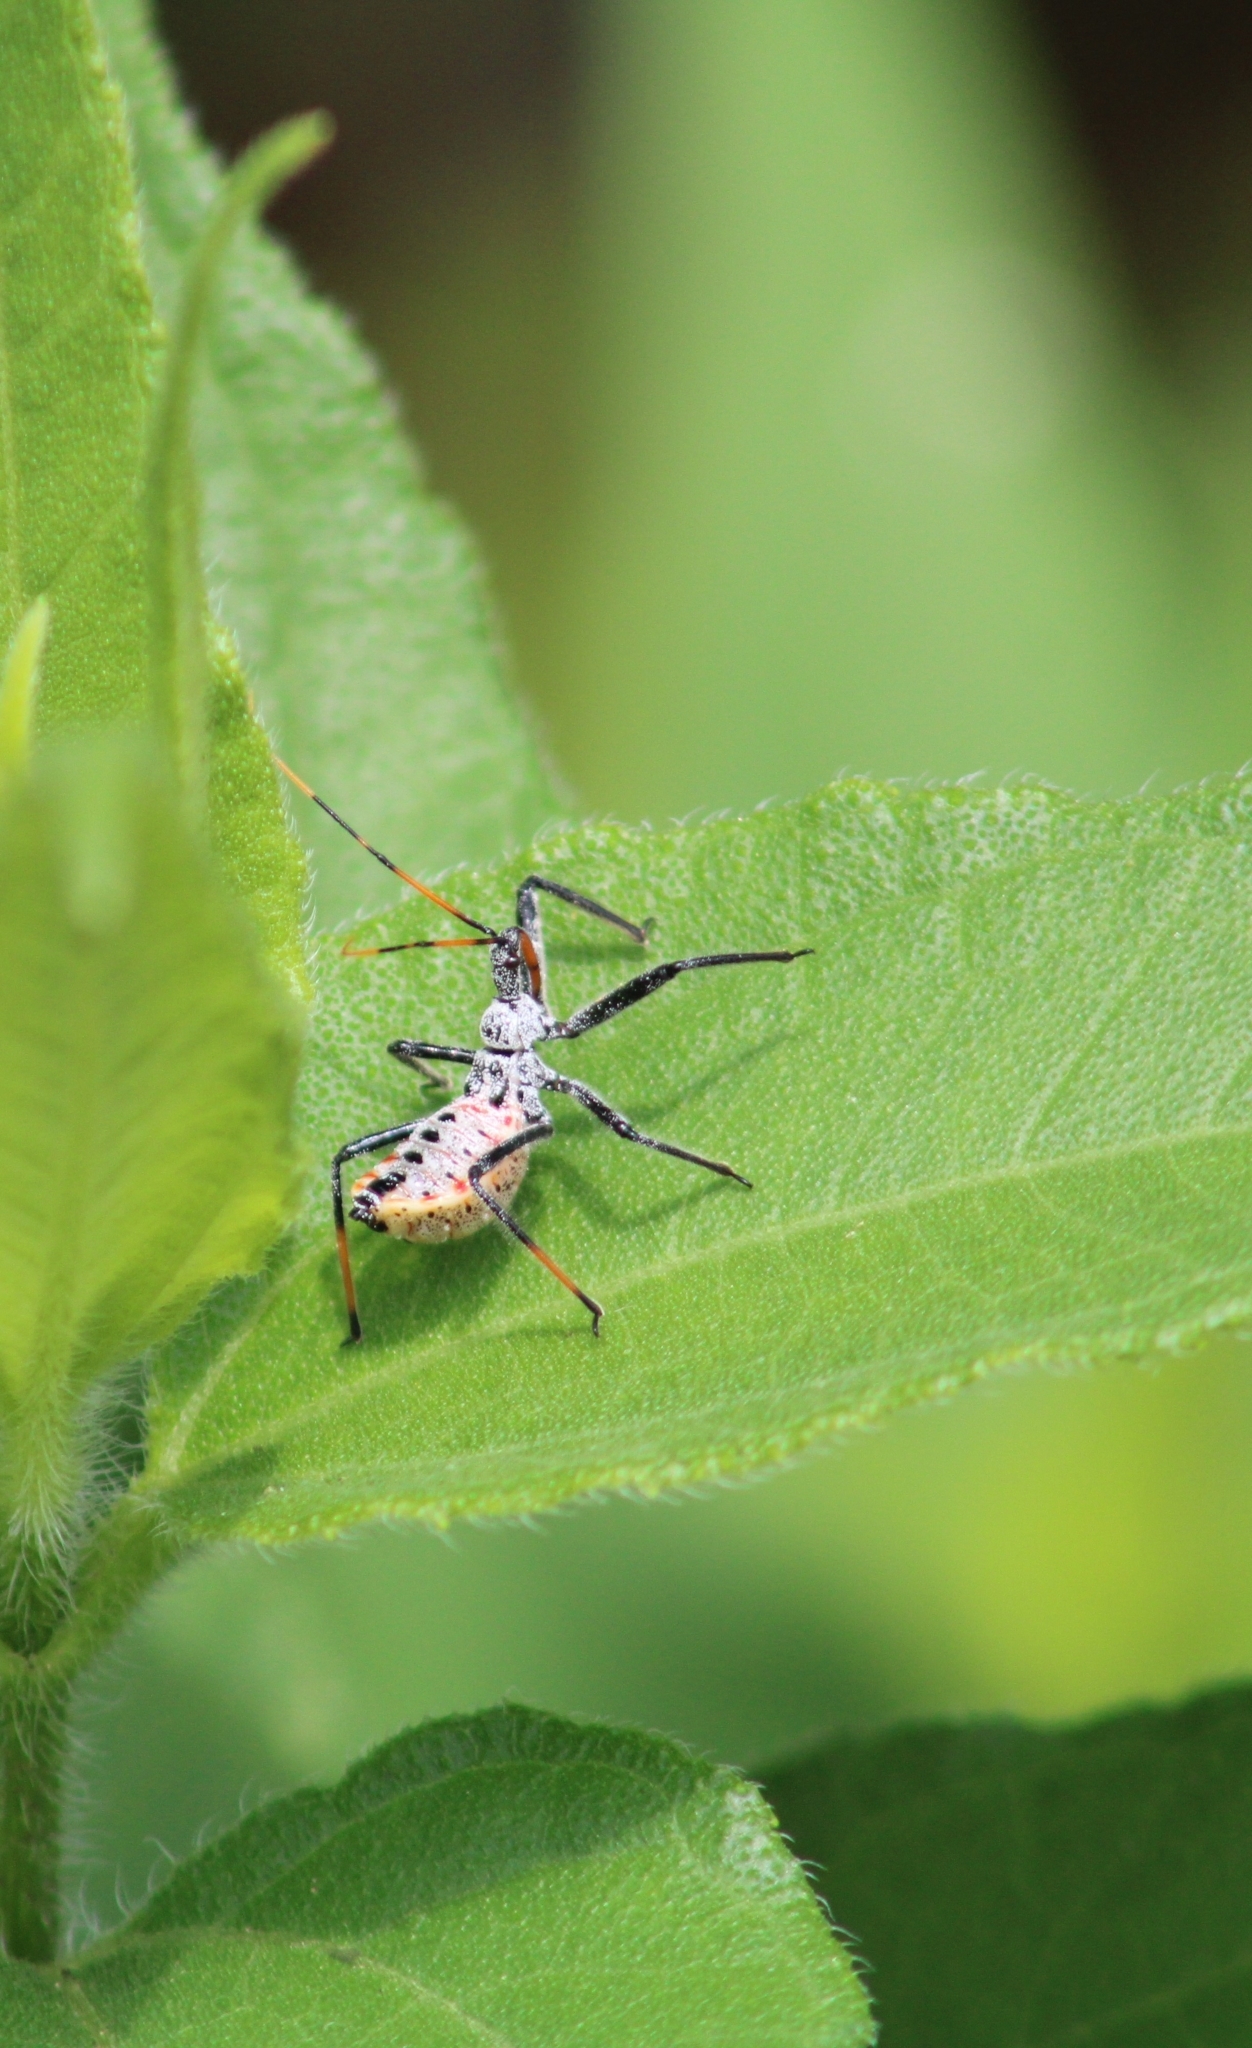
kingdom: Animalia
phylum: Arthropoda
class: Insecta
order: Hemiptera
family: Reduviidae
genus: Arilus
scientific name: Arilus cristatus
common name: North american wheel bug
